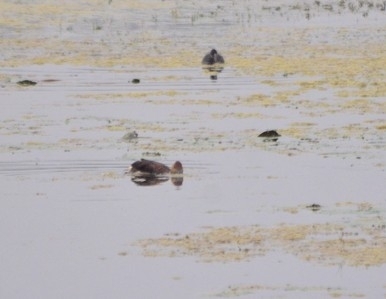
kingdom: Animalia
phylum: Chordata
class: Aves
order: Anseriformes
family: Anatidae
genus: Dendrocygna
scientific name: Dendrocygna javanica
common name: Lesser whistling-duck
